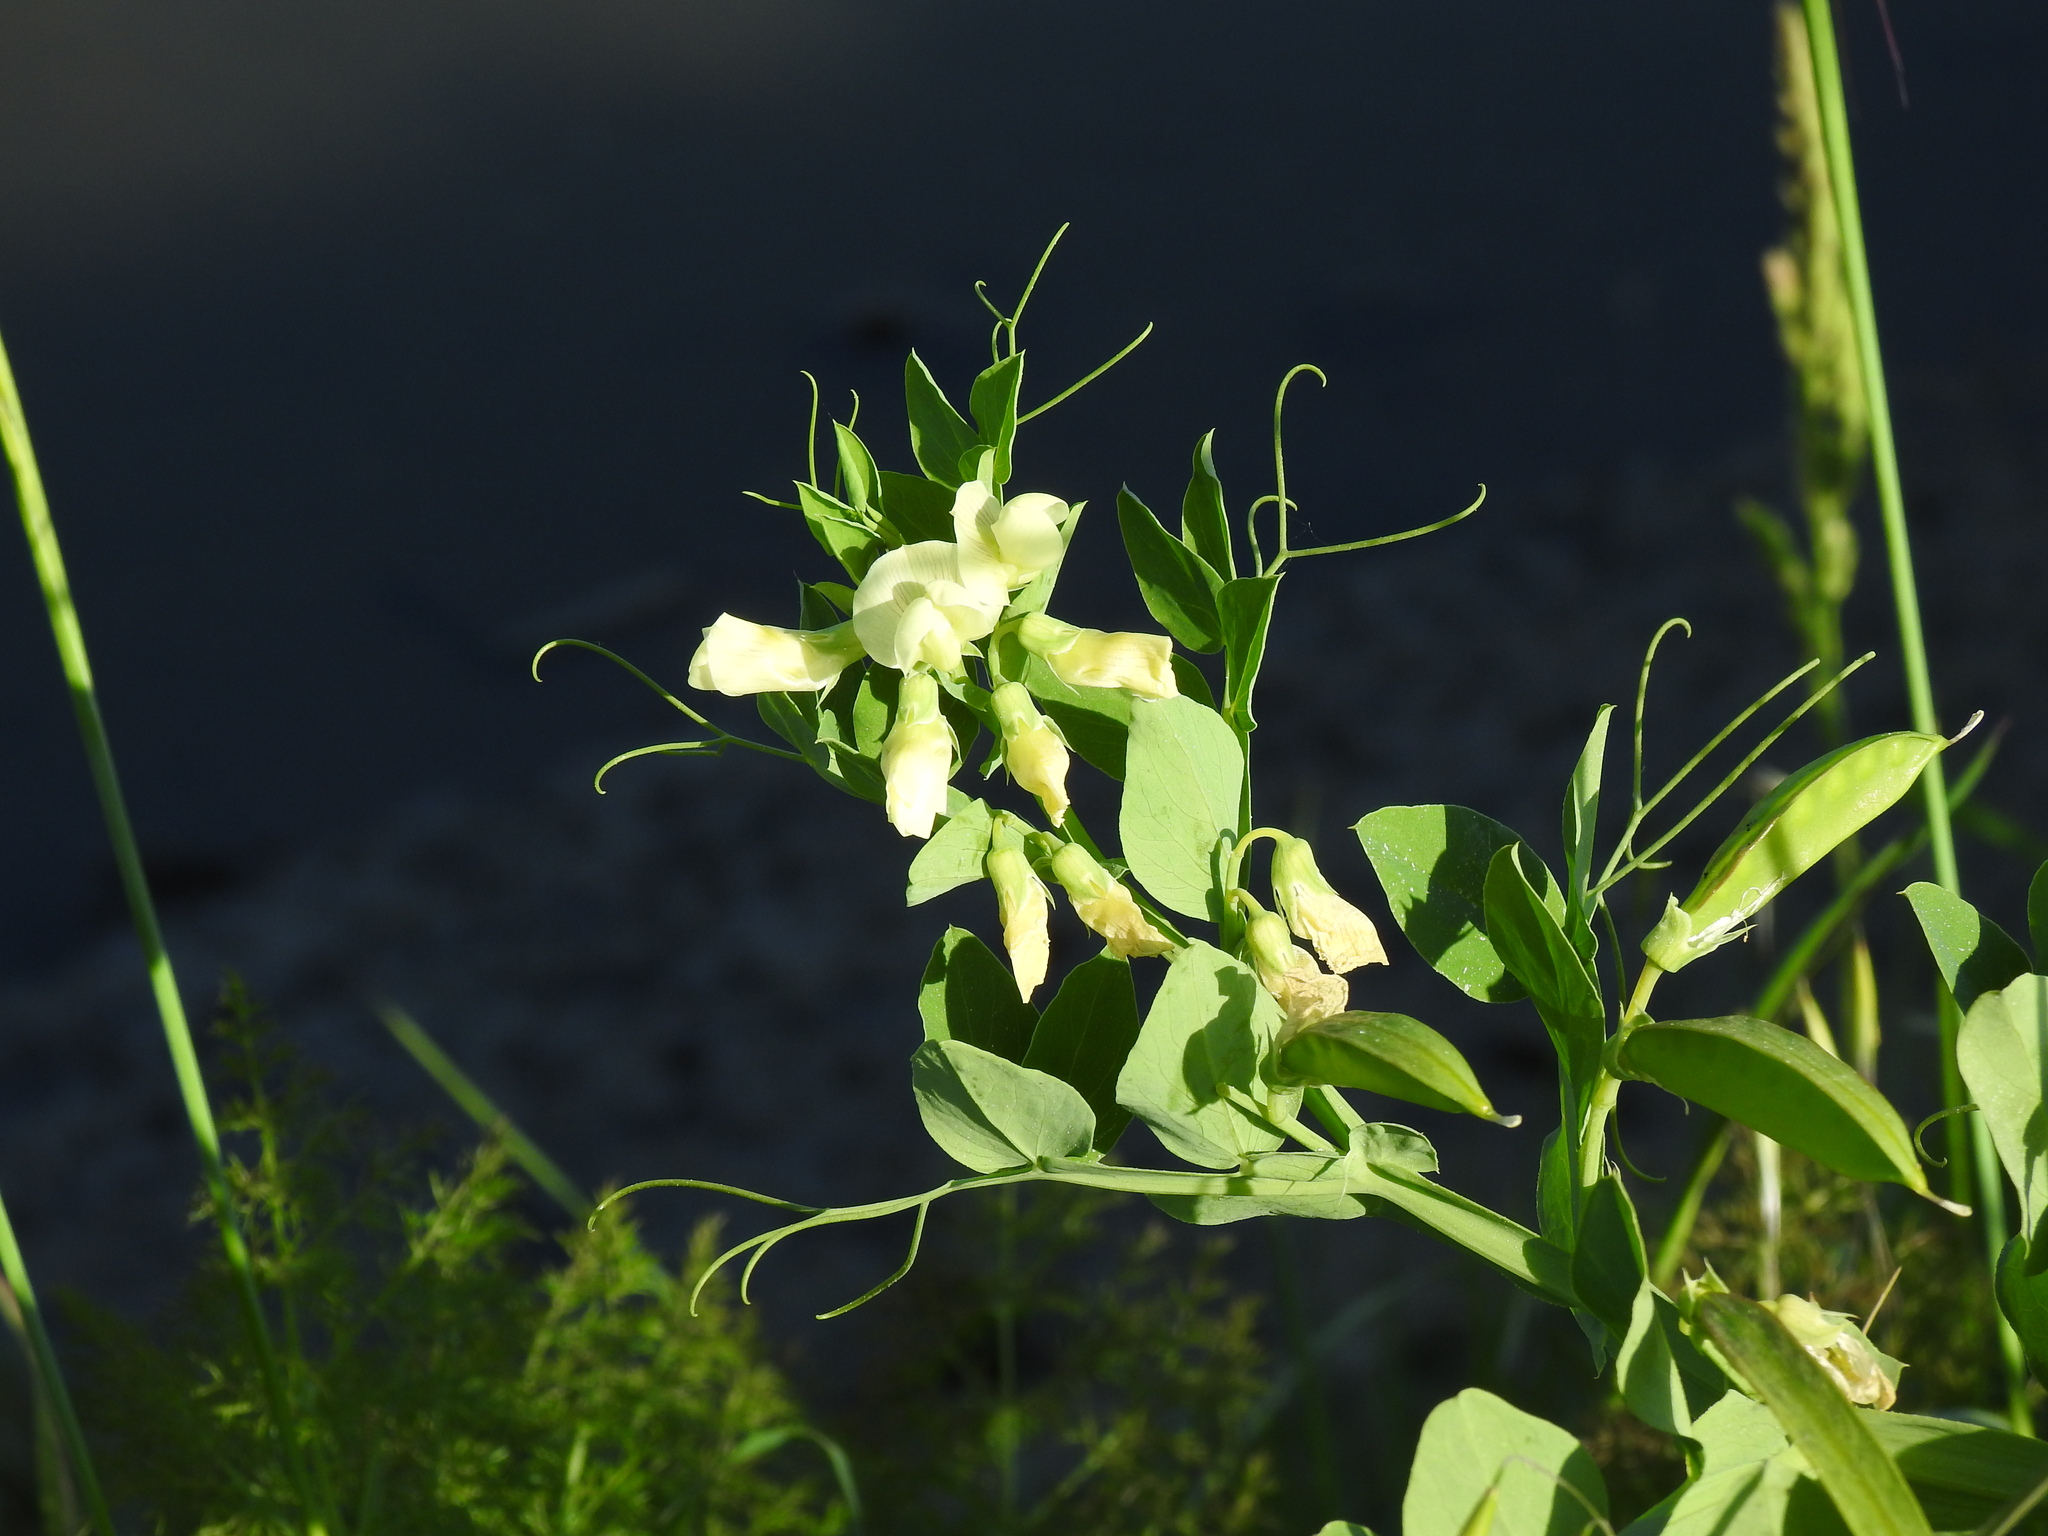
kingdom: Plantae
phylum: Tracheophyta
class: Magnoliopsida
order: Fabales
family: Fabaceae
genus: Lathyrus
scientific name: Lathyrus ochrus
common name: Winged vetchling
